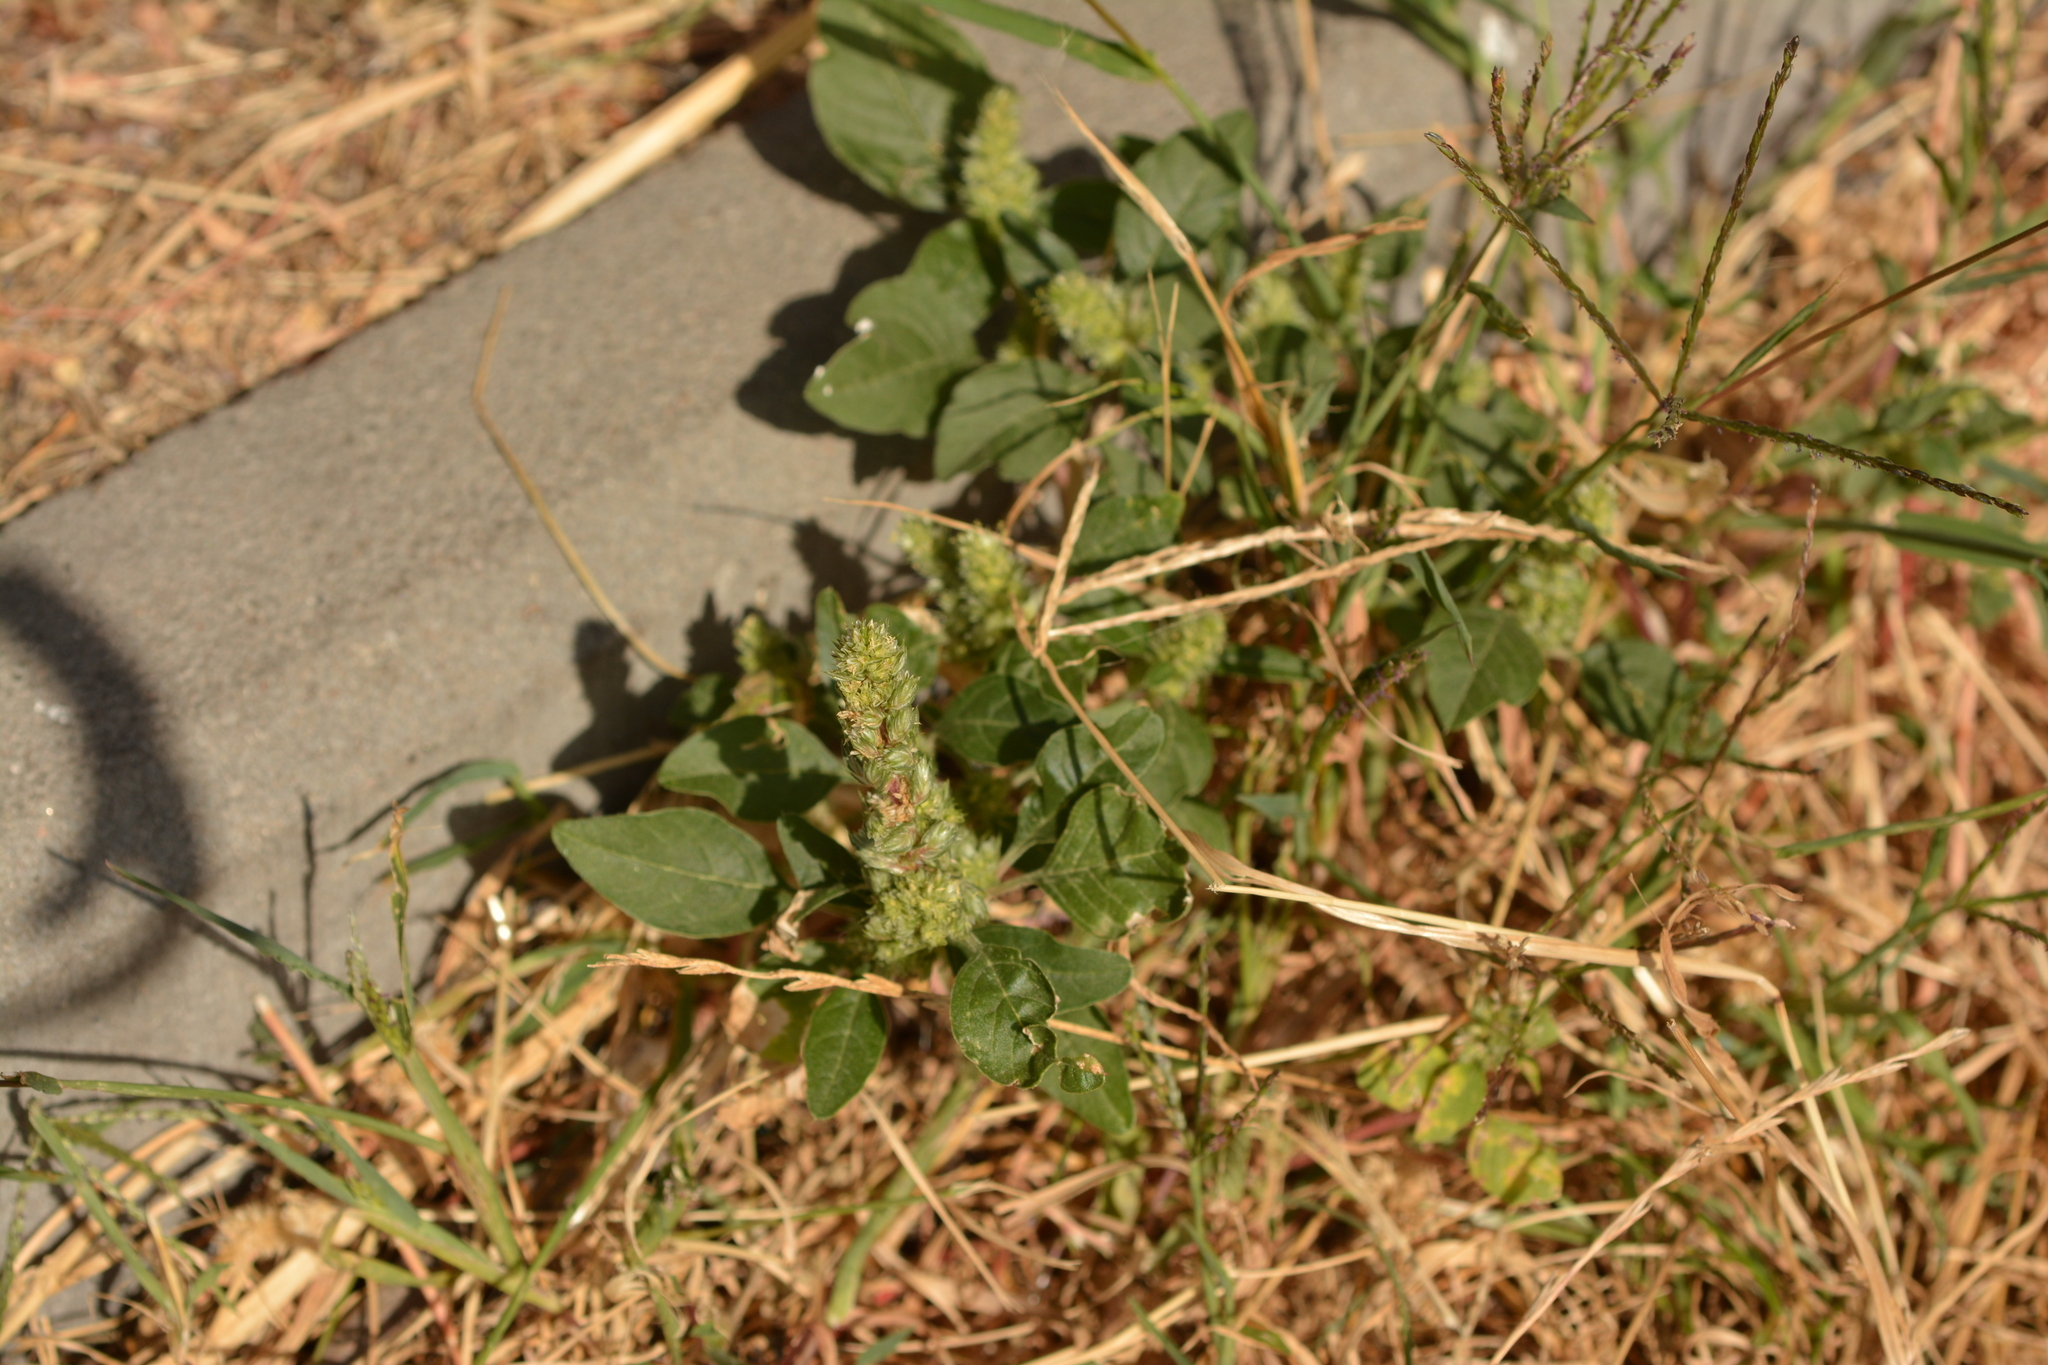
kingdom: Plantae
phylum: Tracheophyta
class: Magnoliopsida
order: Caryophyllales
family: Amaranthaceae
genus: Amaranthus
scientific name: Amaranthus retroflexus
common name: Redroot amaranth
